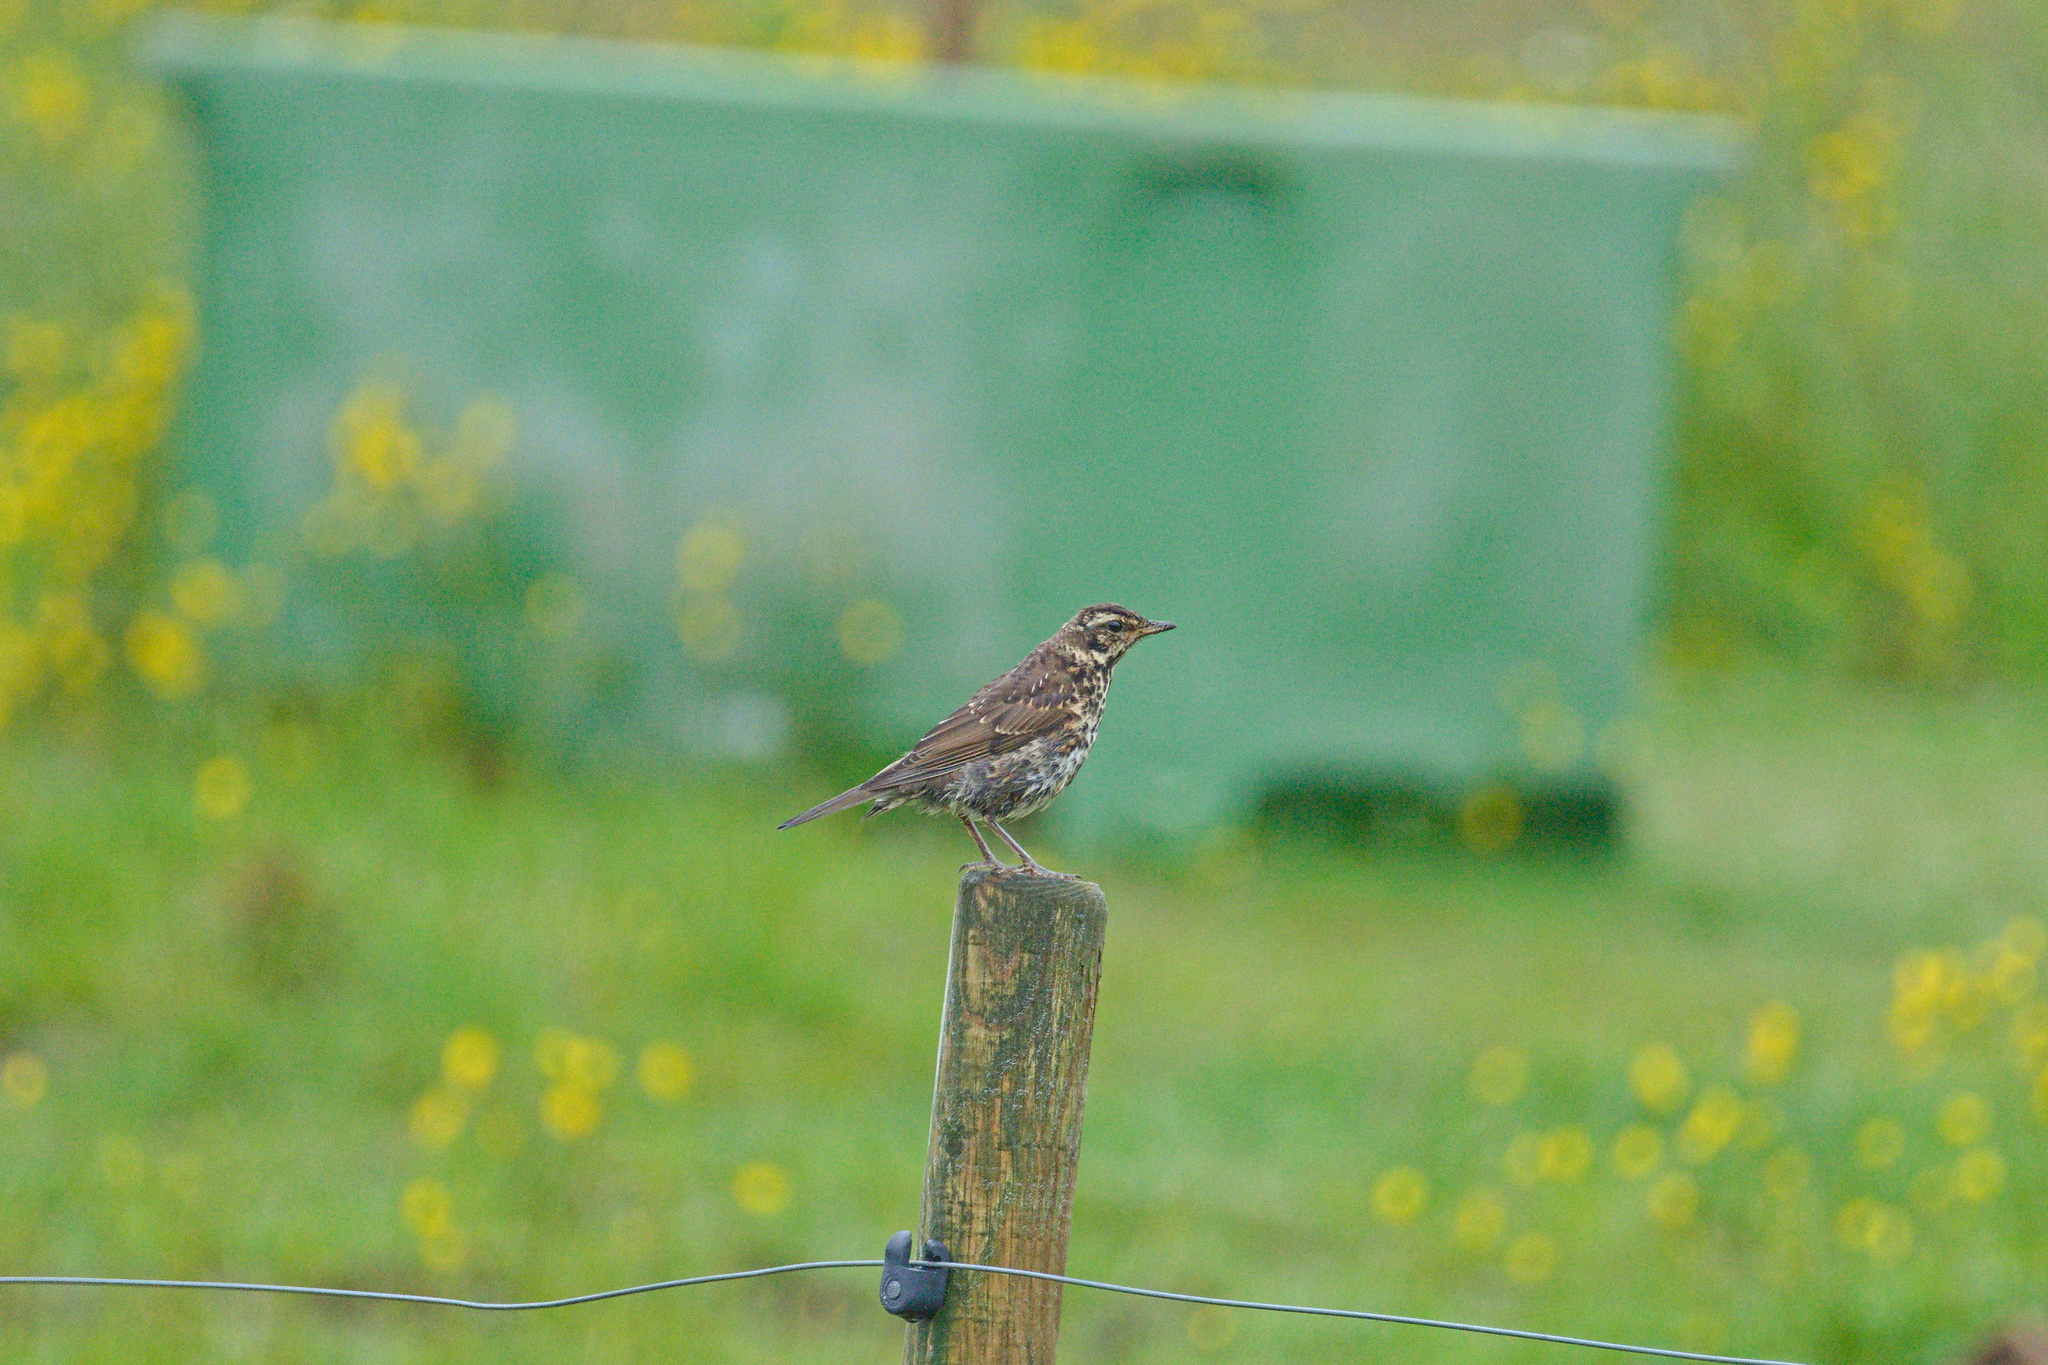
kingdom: Animalia
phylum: Chordata
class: Aves
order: Passeriformes
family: Turdidae
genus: Turdus
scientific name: Turdus iliacus
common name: Redwing
